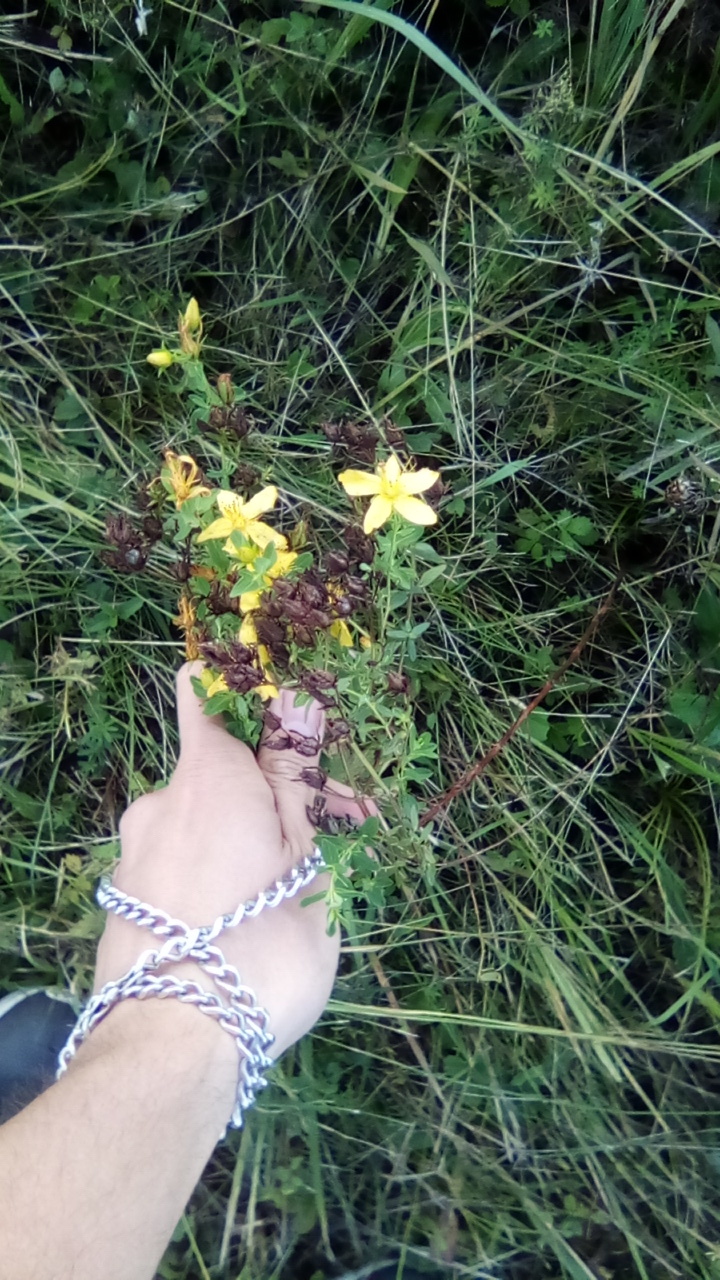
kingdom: Plantae
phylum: Tracheophyta
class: Magnoliopsida
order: Malpighiales
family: Hypericaceae
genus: Hypericum
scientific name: Hypericum perforatum
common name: Common st. johnswort
